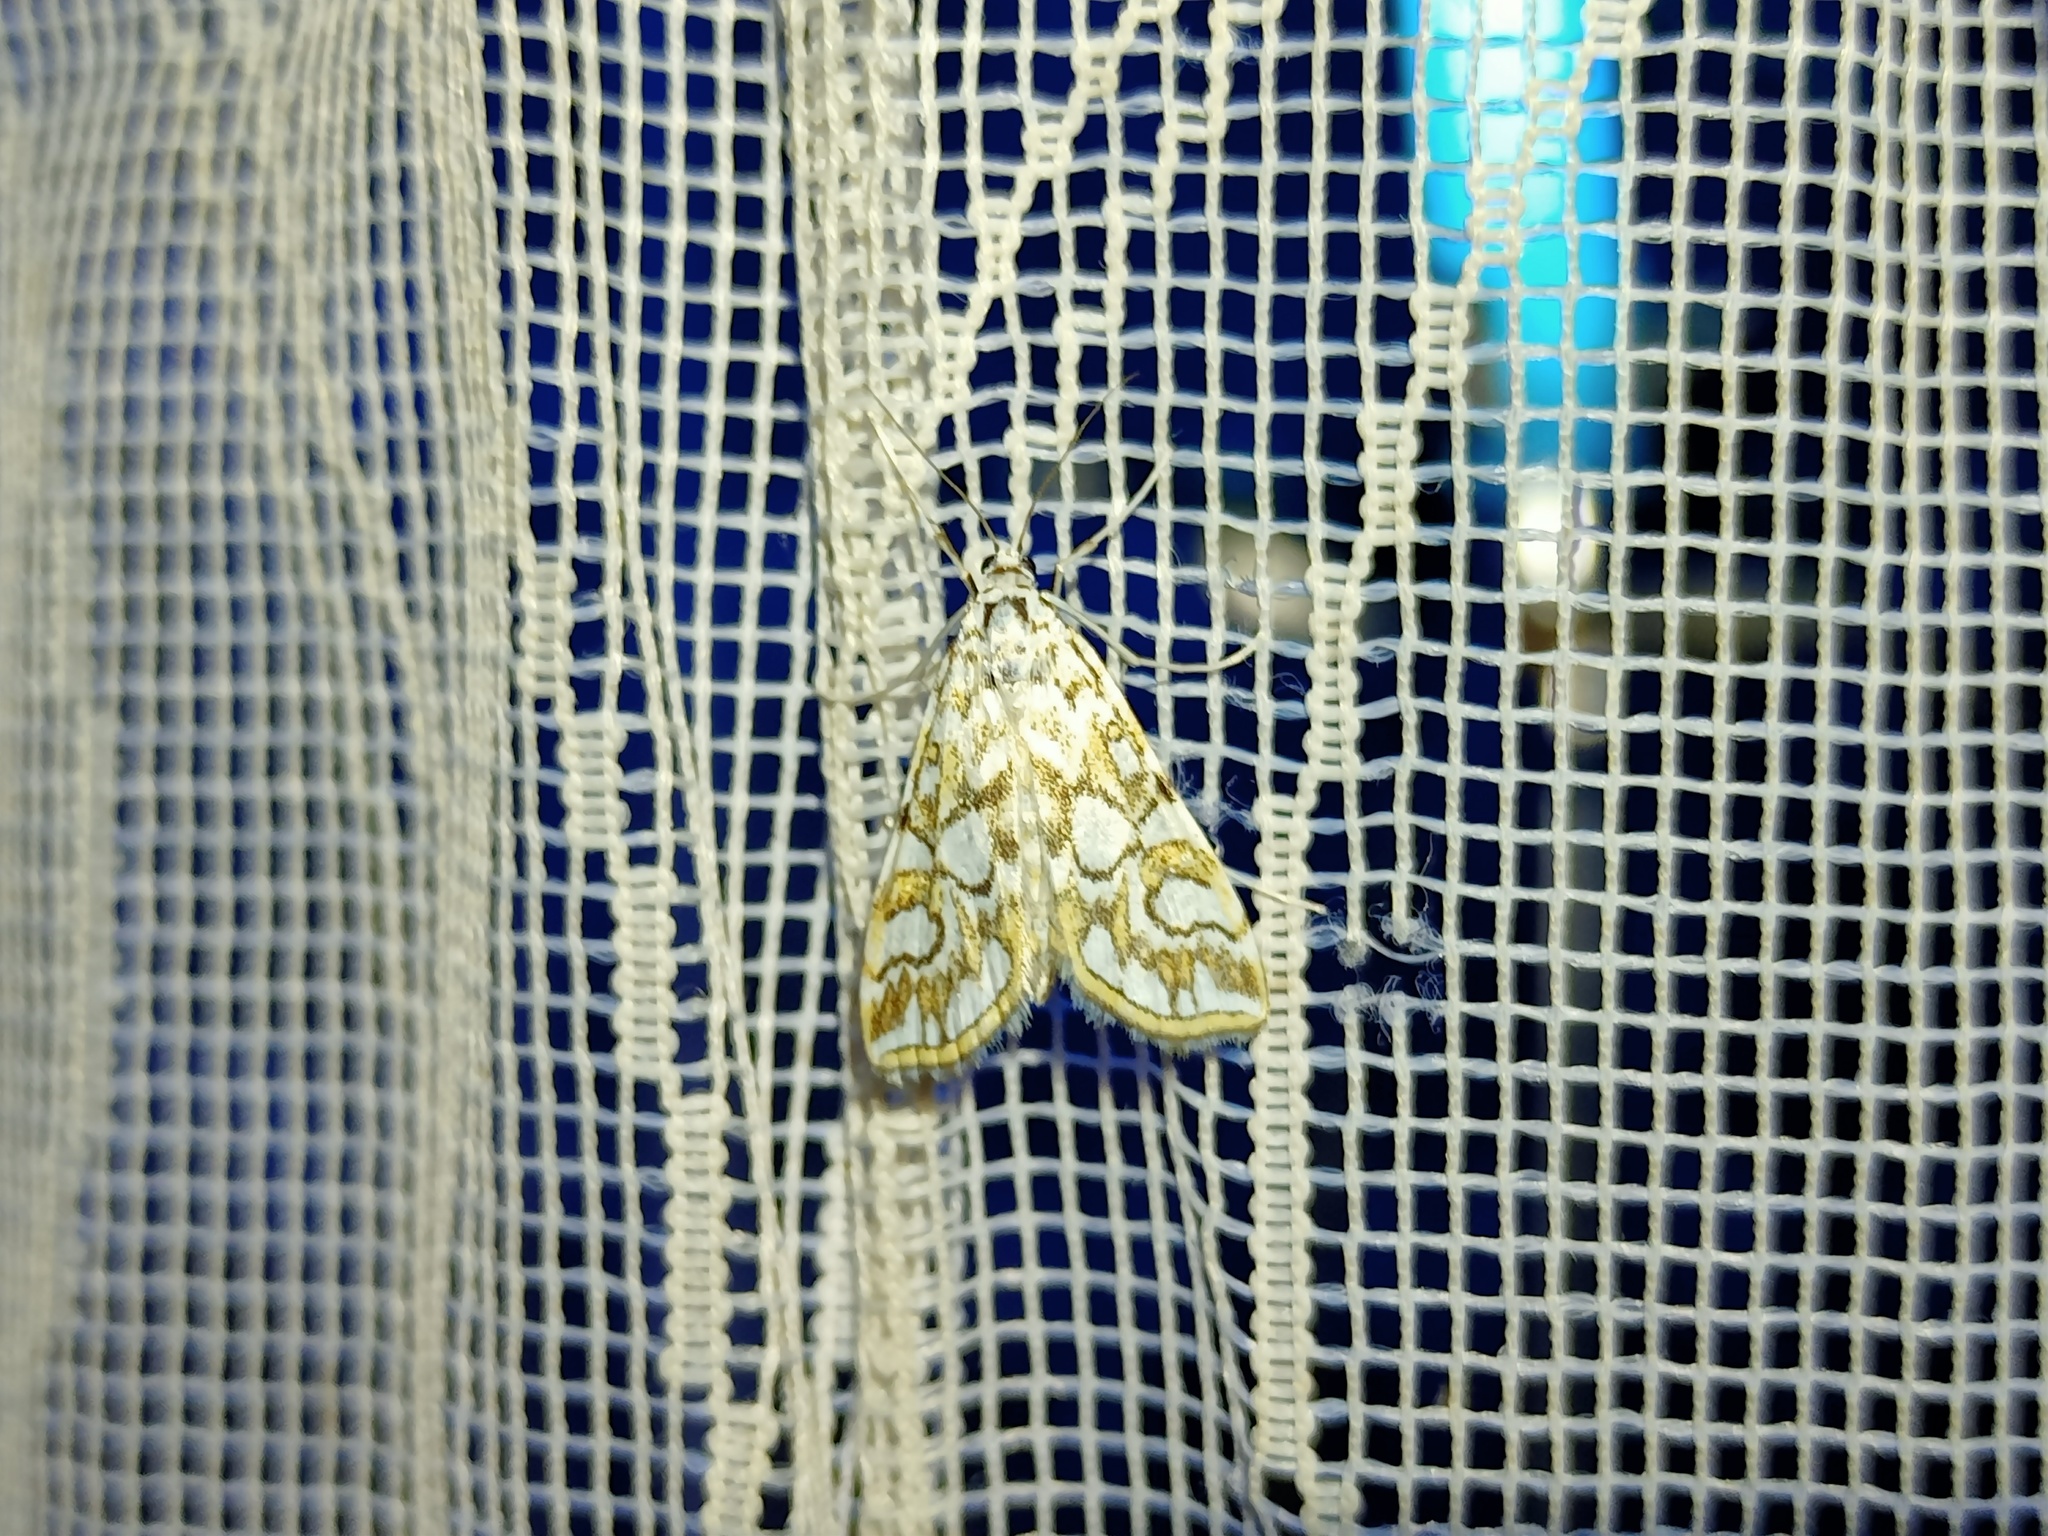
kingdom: Animalia
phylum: Arthropoda
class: Insecta
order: Lepidoptera
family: Crambidae
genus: Elophila
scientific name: Elophila nymphaeata
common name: Brown china-mark
